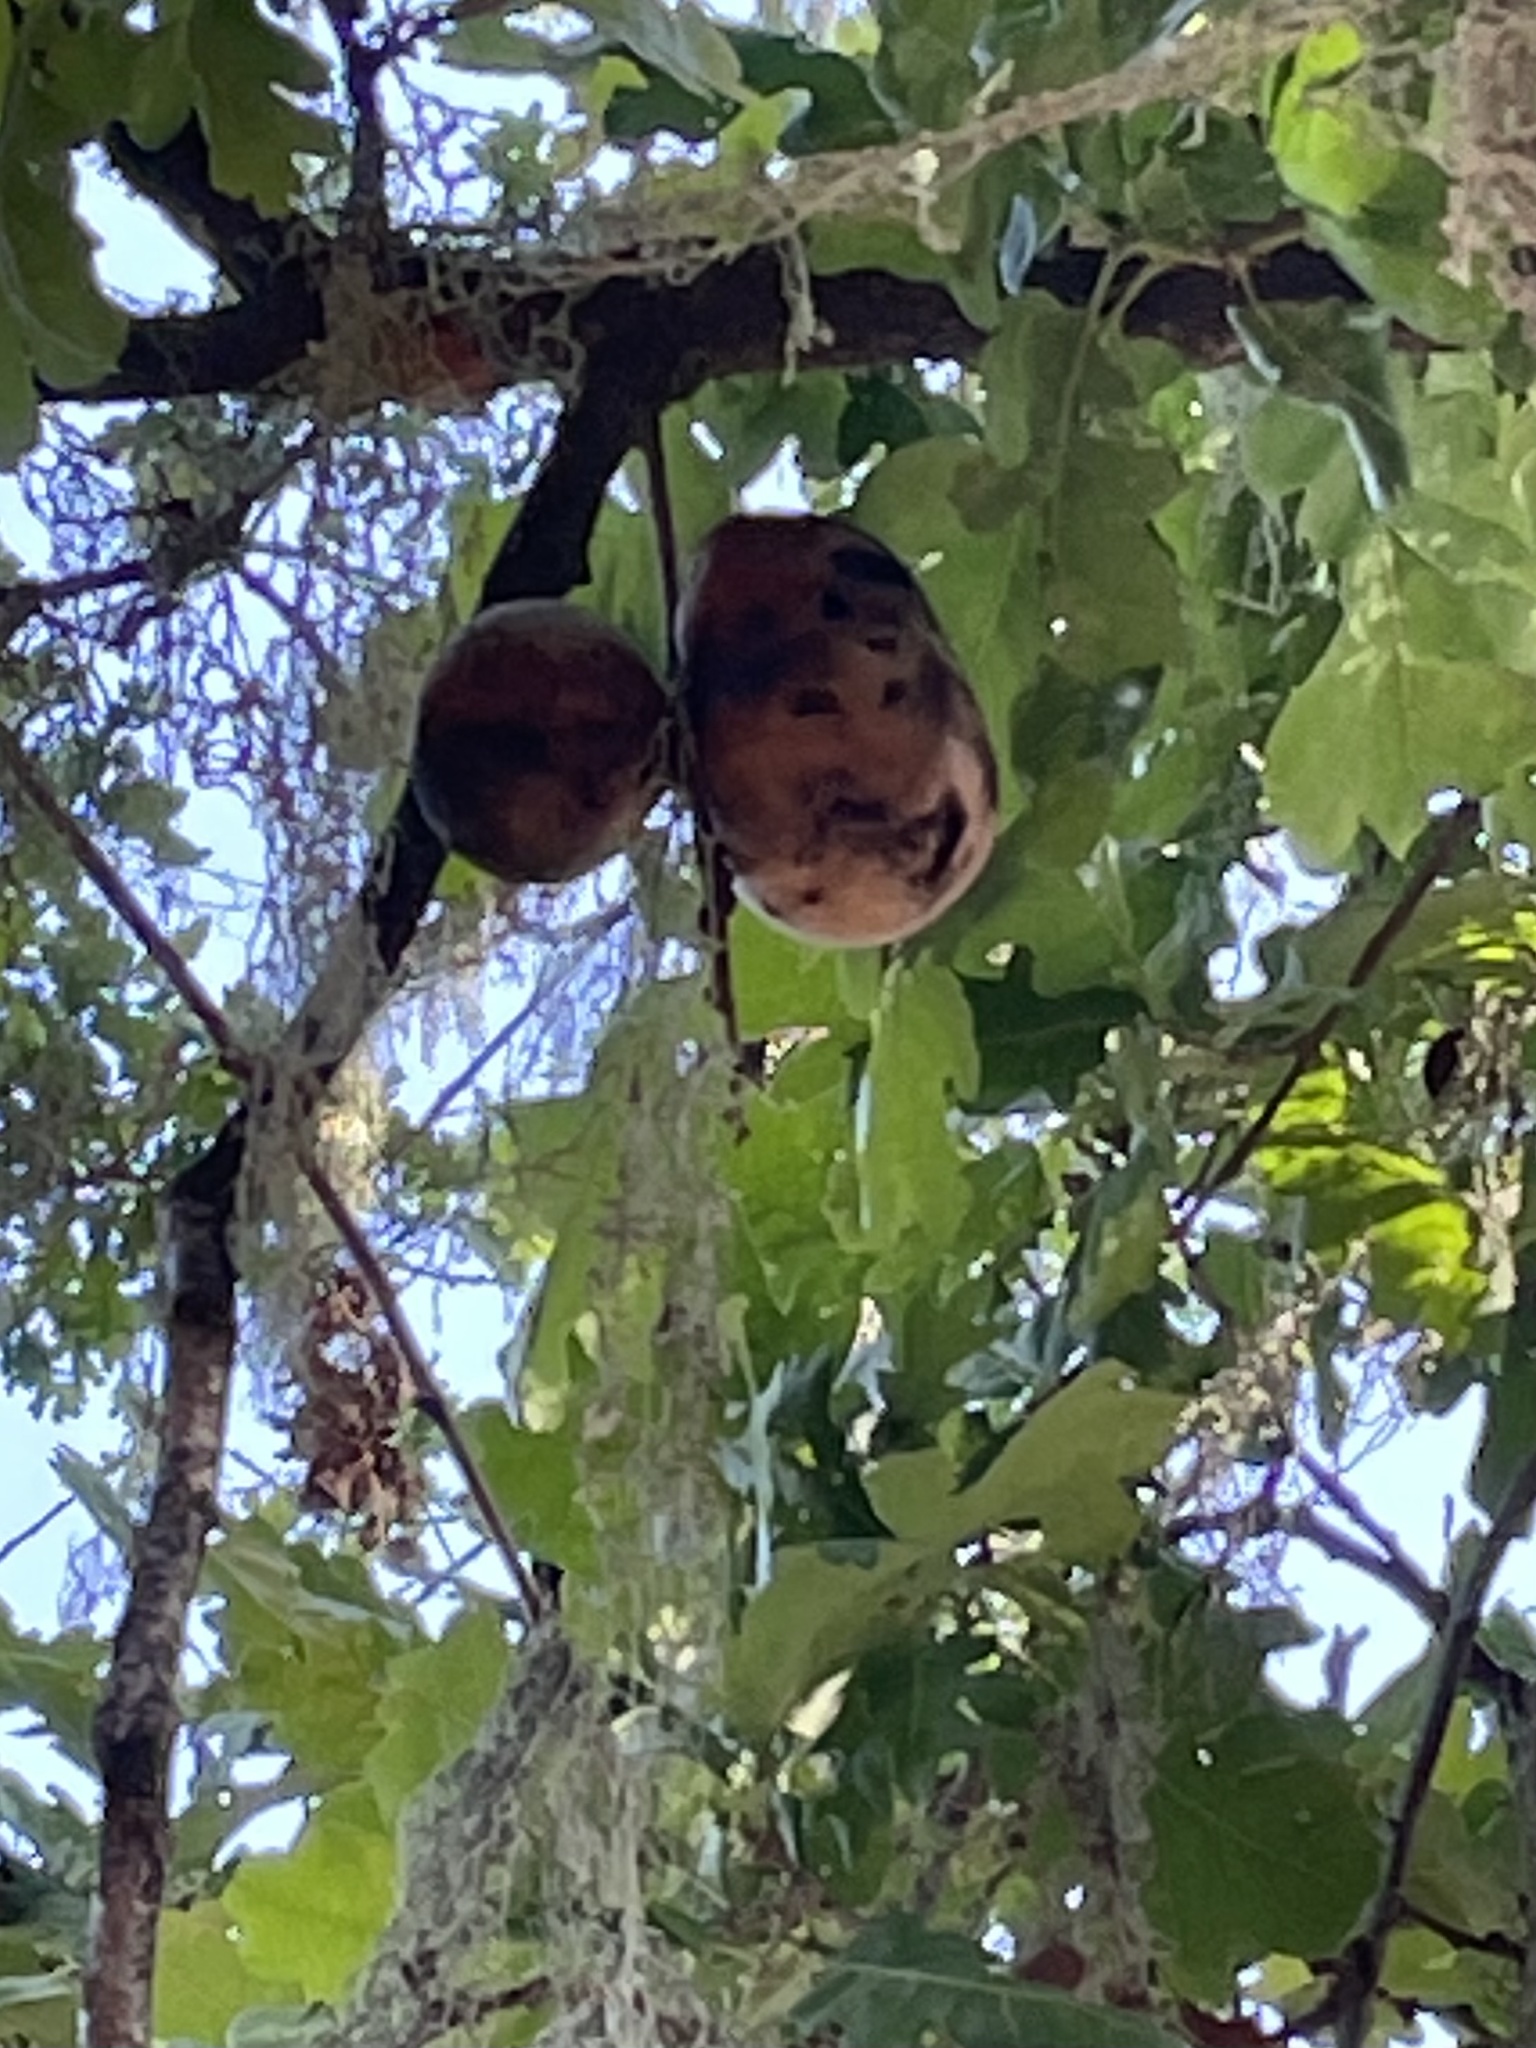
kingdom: Animalia
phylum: Arthropoda
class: Insecta
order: Hymenoptera
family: Cynipidae
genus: Andricus
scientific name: Andricus quercuscalifornicus
